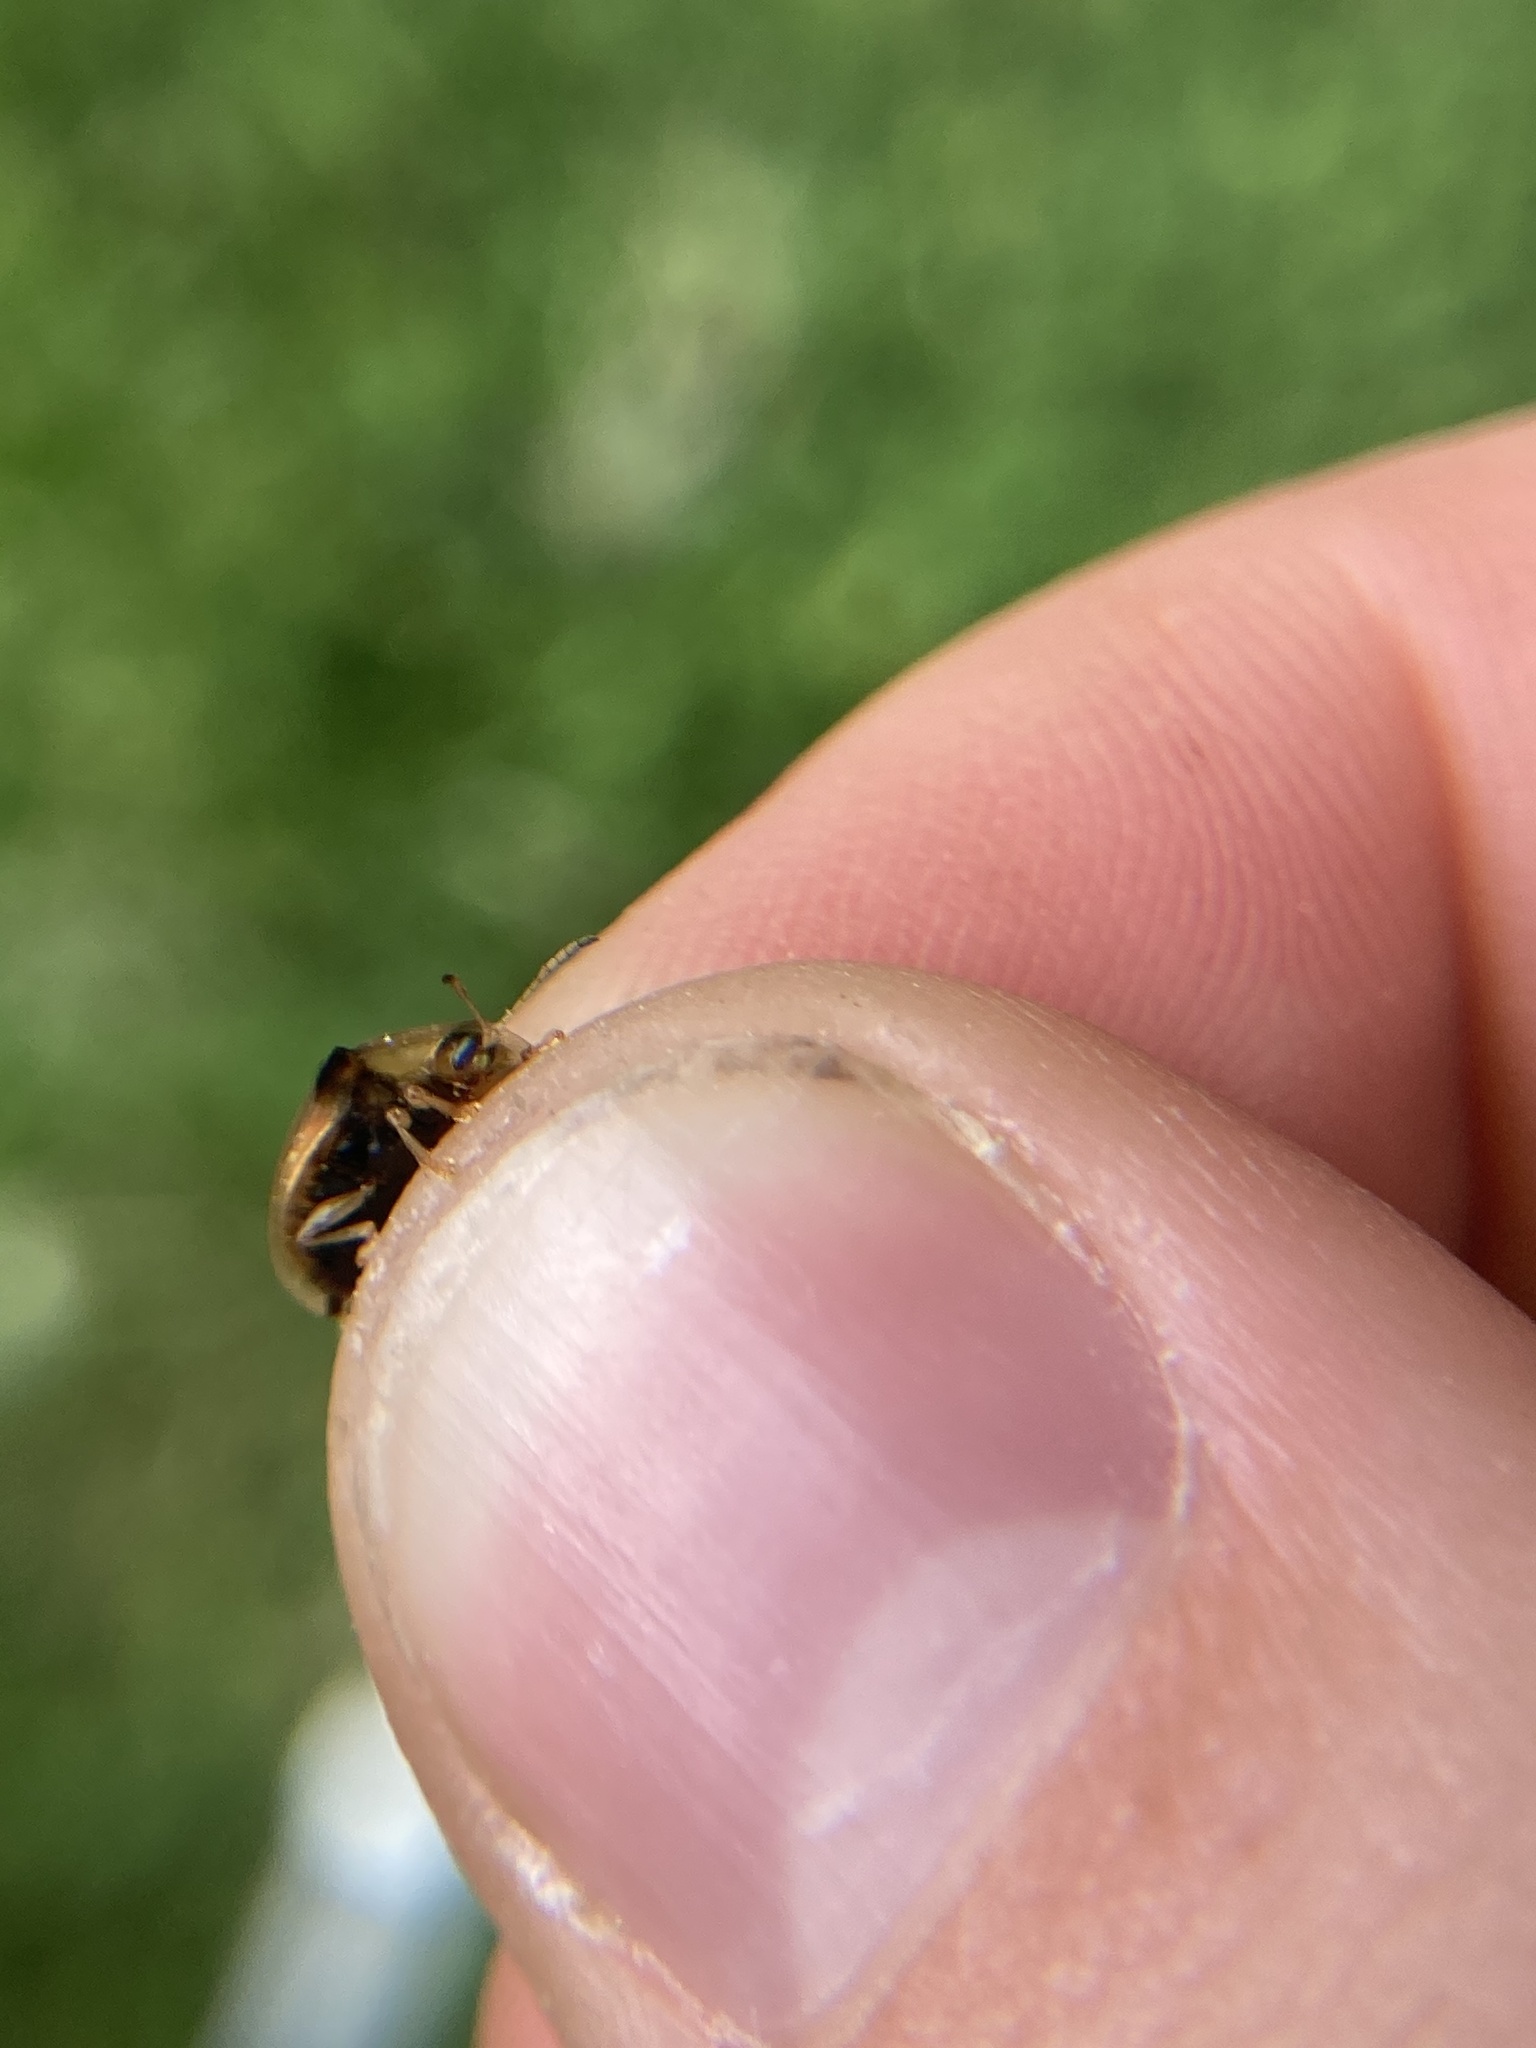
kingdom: Animalia
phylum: Arthropoda
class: Insecta
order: Coleoptera
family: Chrysomelidae
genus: Deloyala
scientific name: Deloyala guttata
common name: Mottled tortoise beetle
